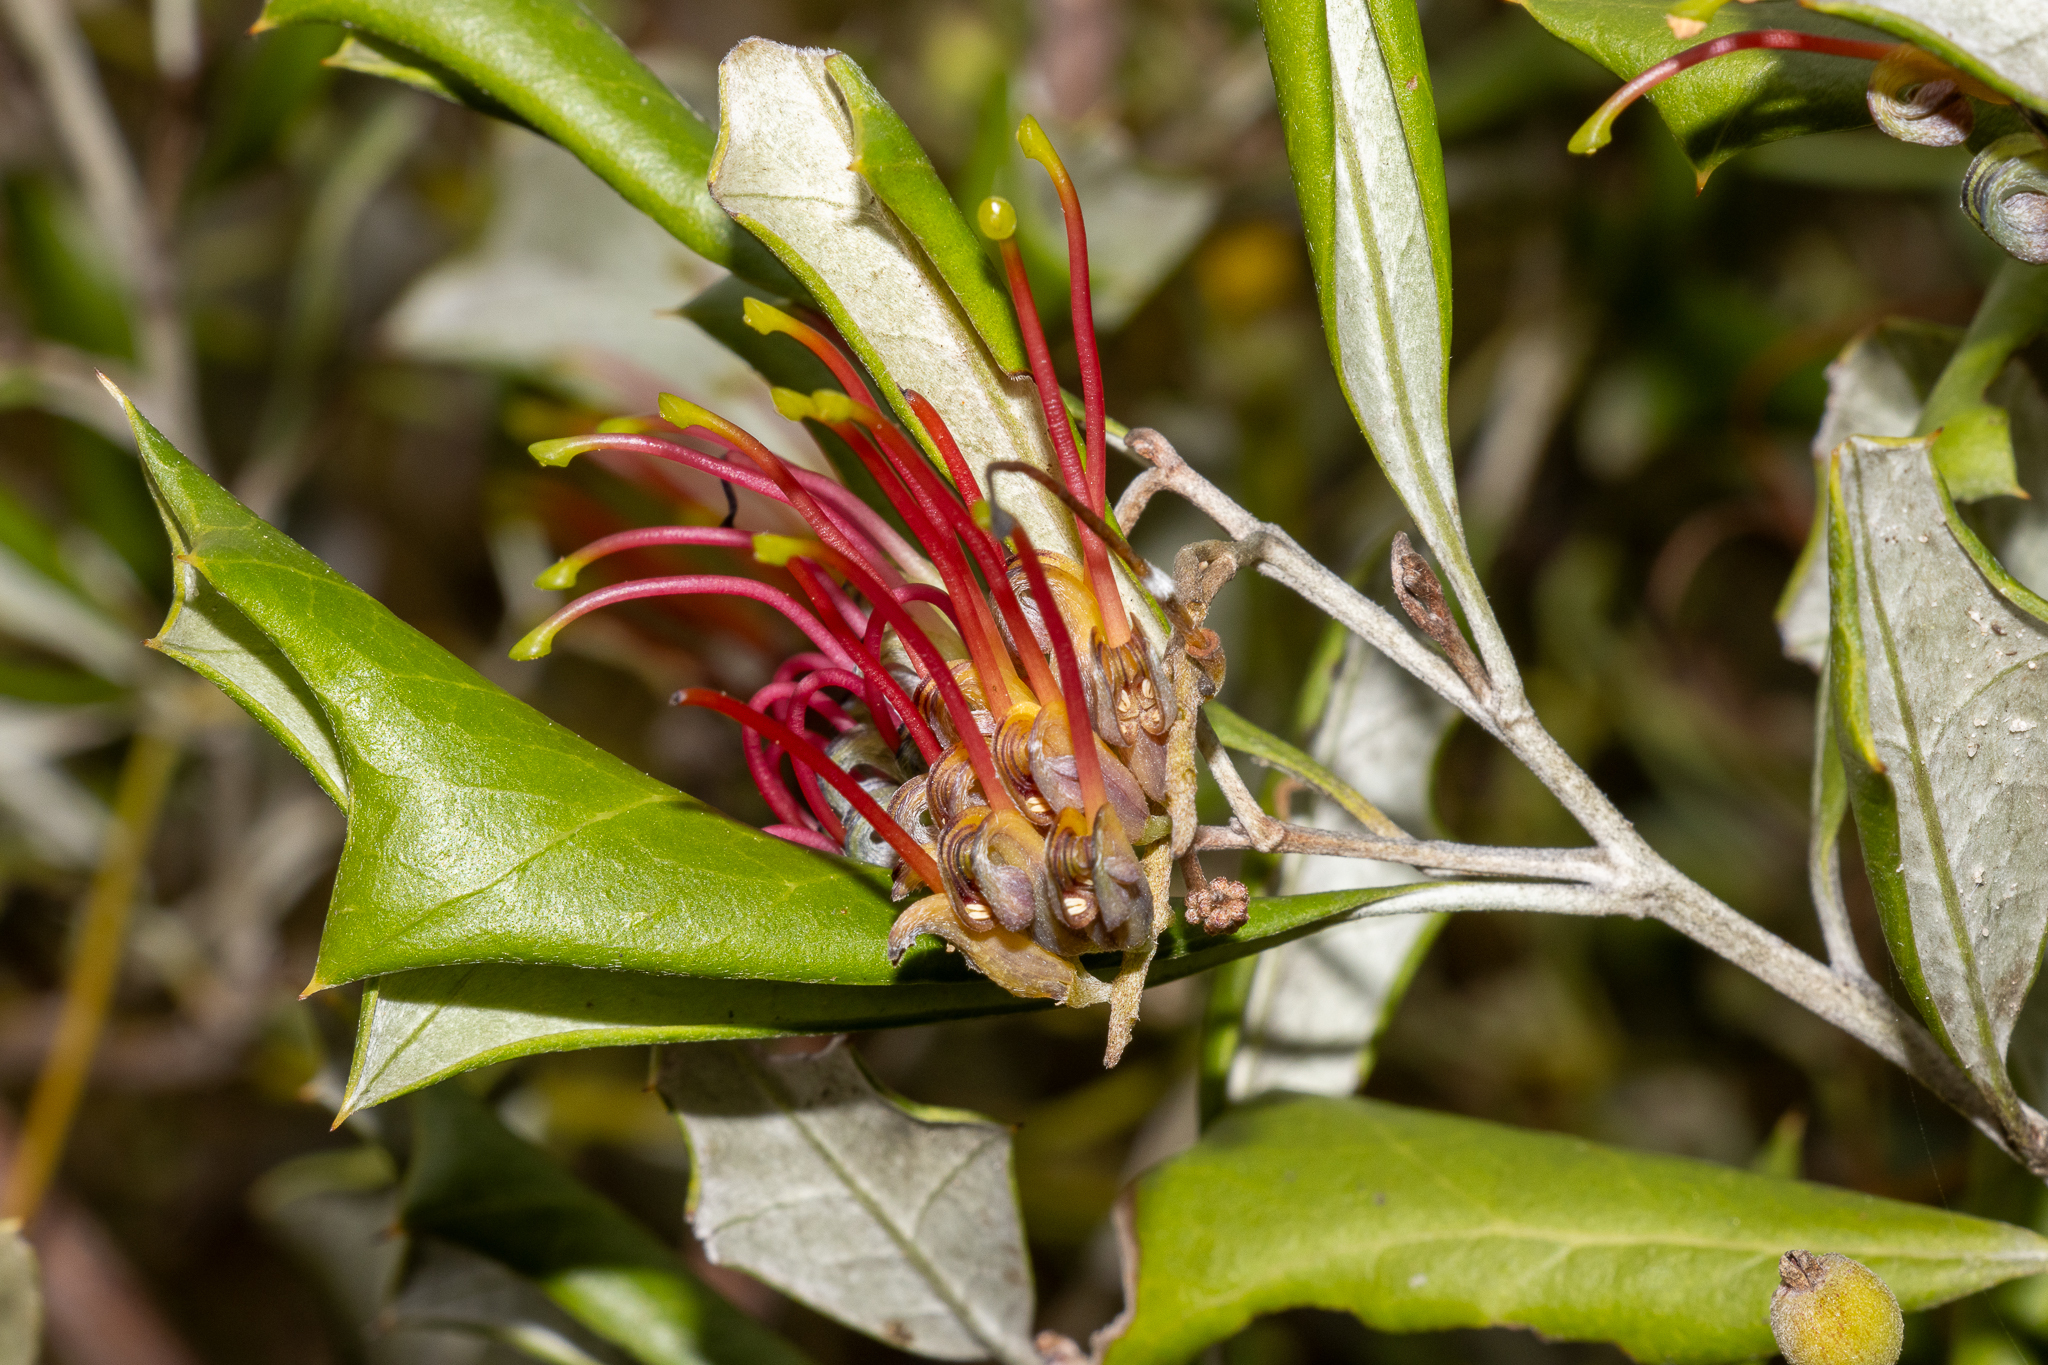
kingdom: Plantae
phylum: Tracheophyta
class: Magnoliopsida
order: Proteales
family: Proteaceae
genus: Grevillea
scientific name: Grevillea ilicifolia
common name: Holly grevillea
